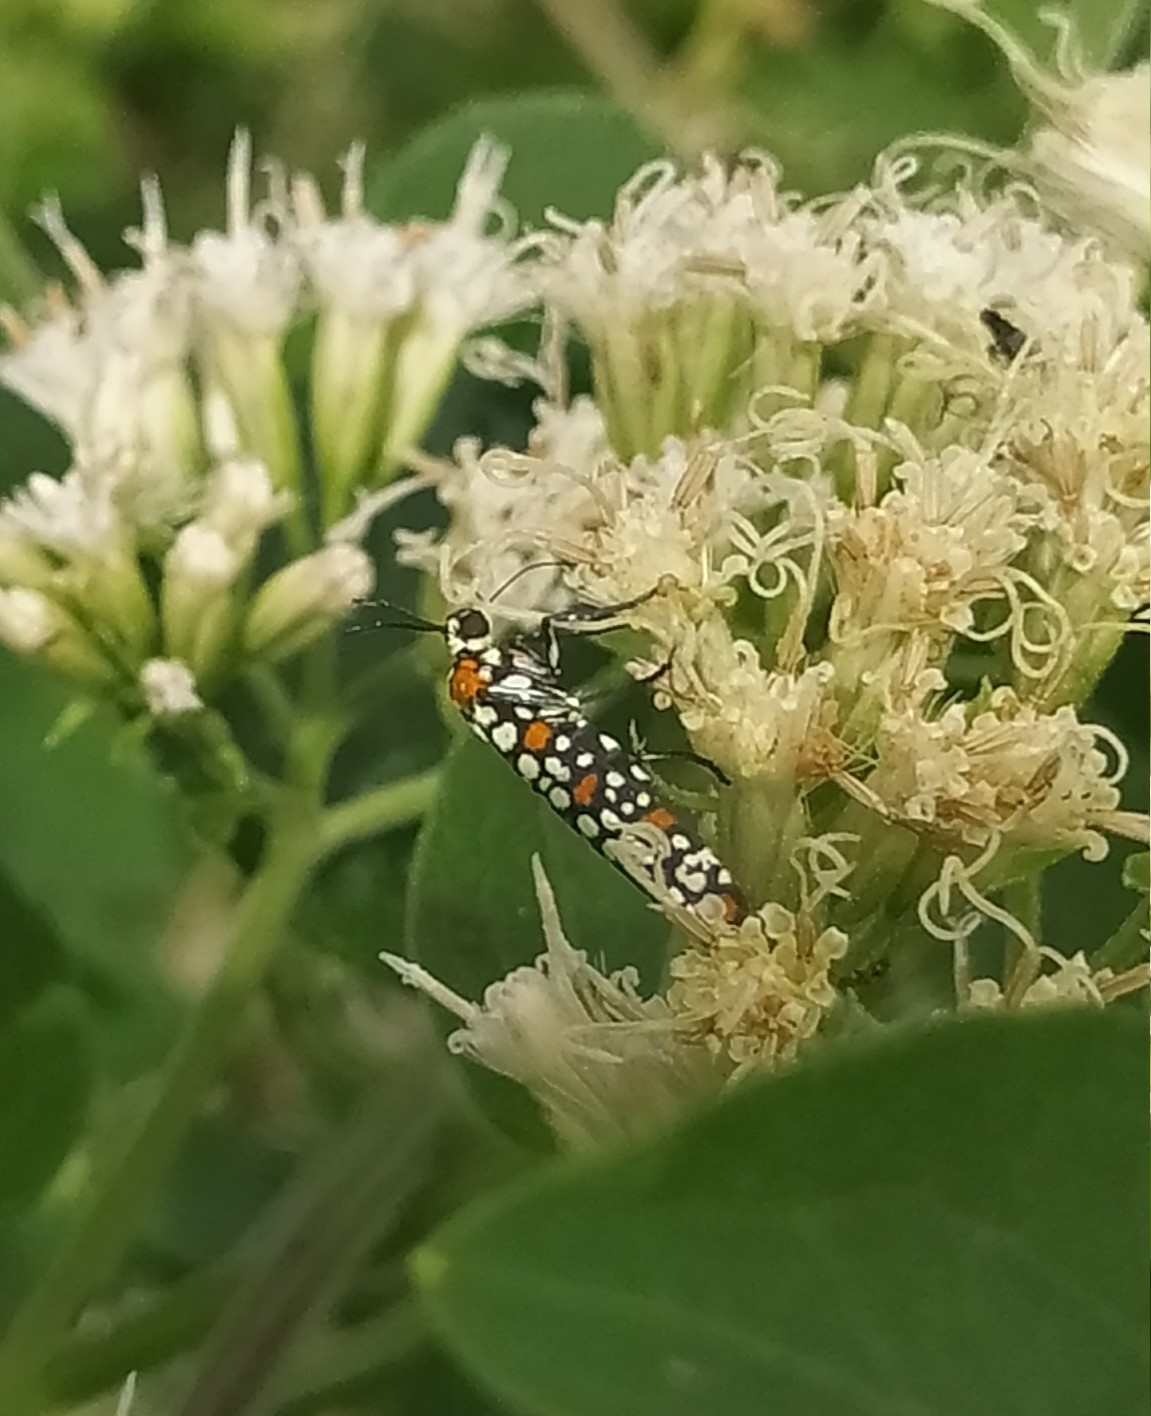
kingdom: Animalia
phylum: Arthropoda
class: Insecta
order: Lepidoptera
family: Attevidae
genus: Atteva
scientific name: Atteva punctella
